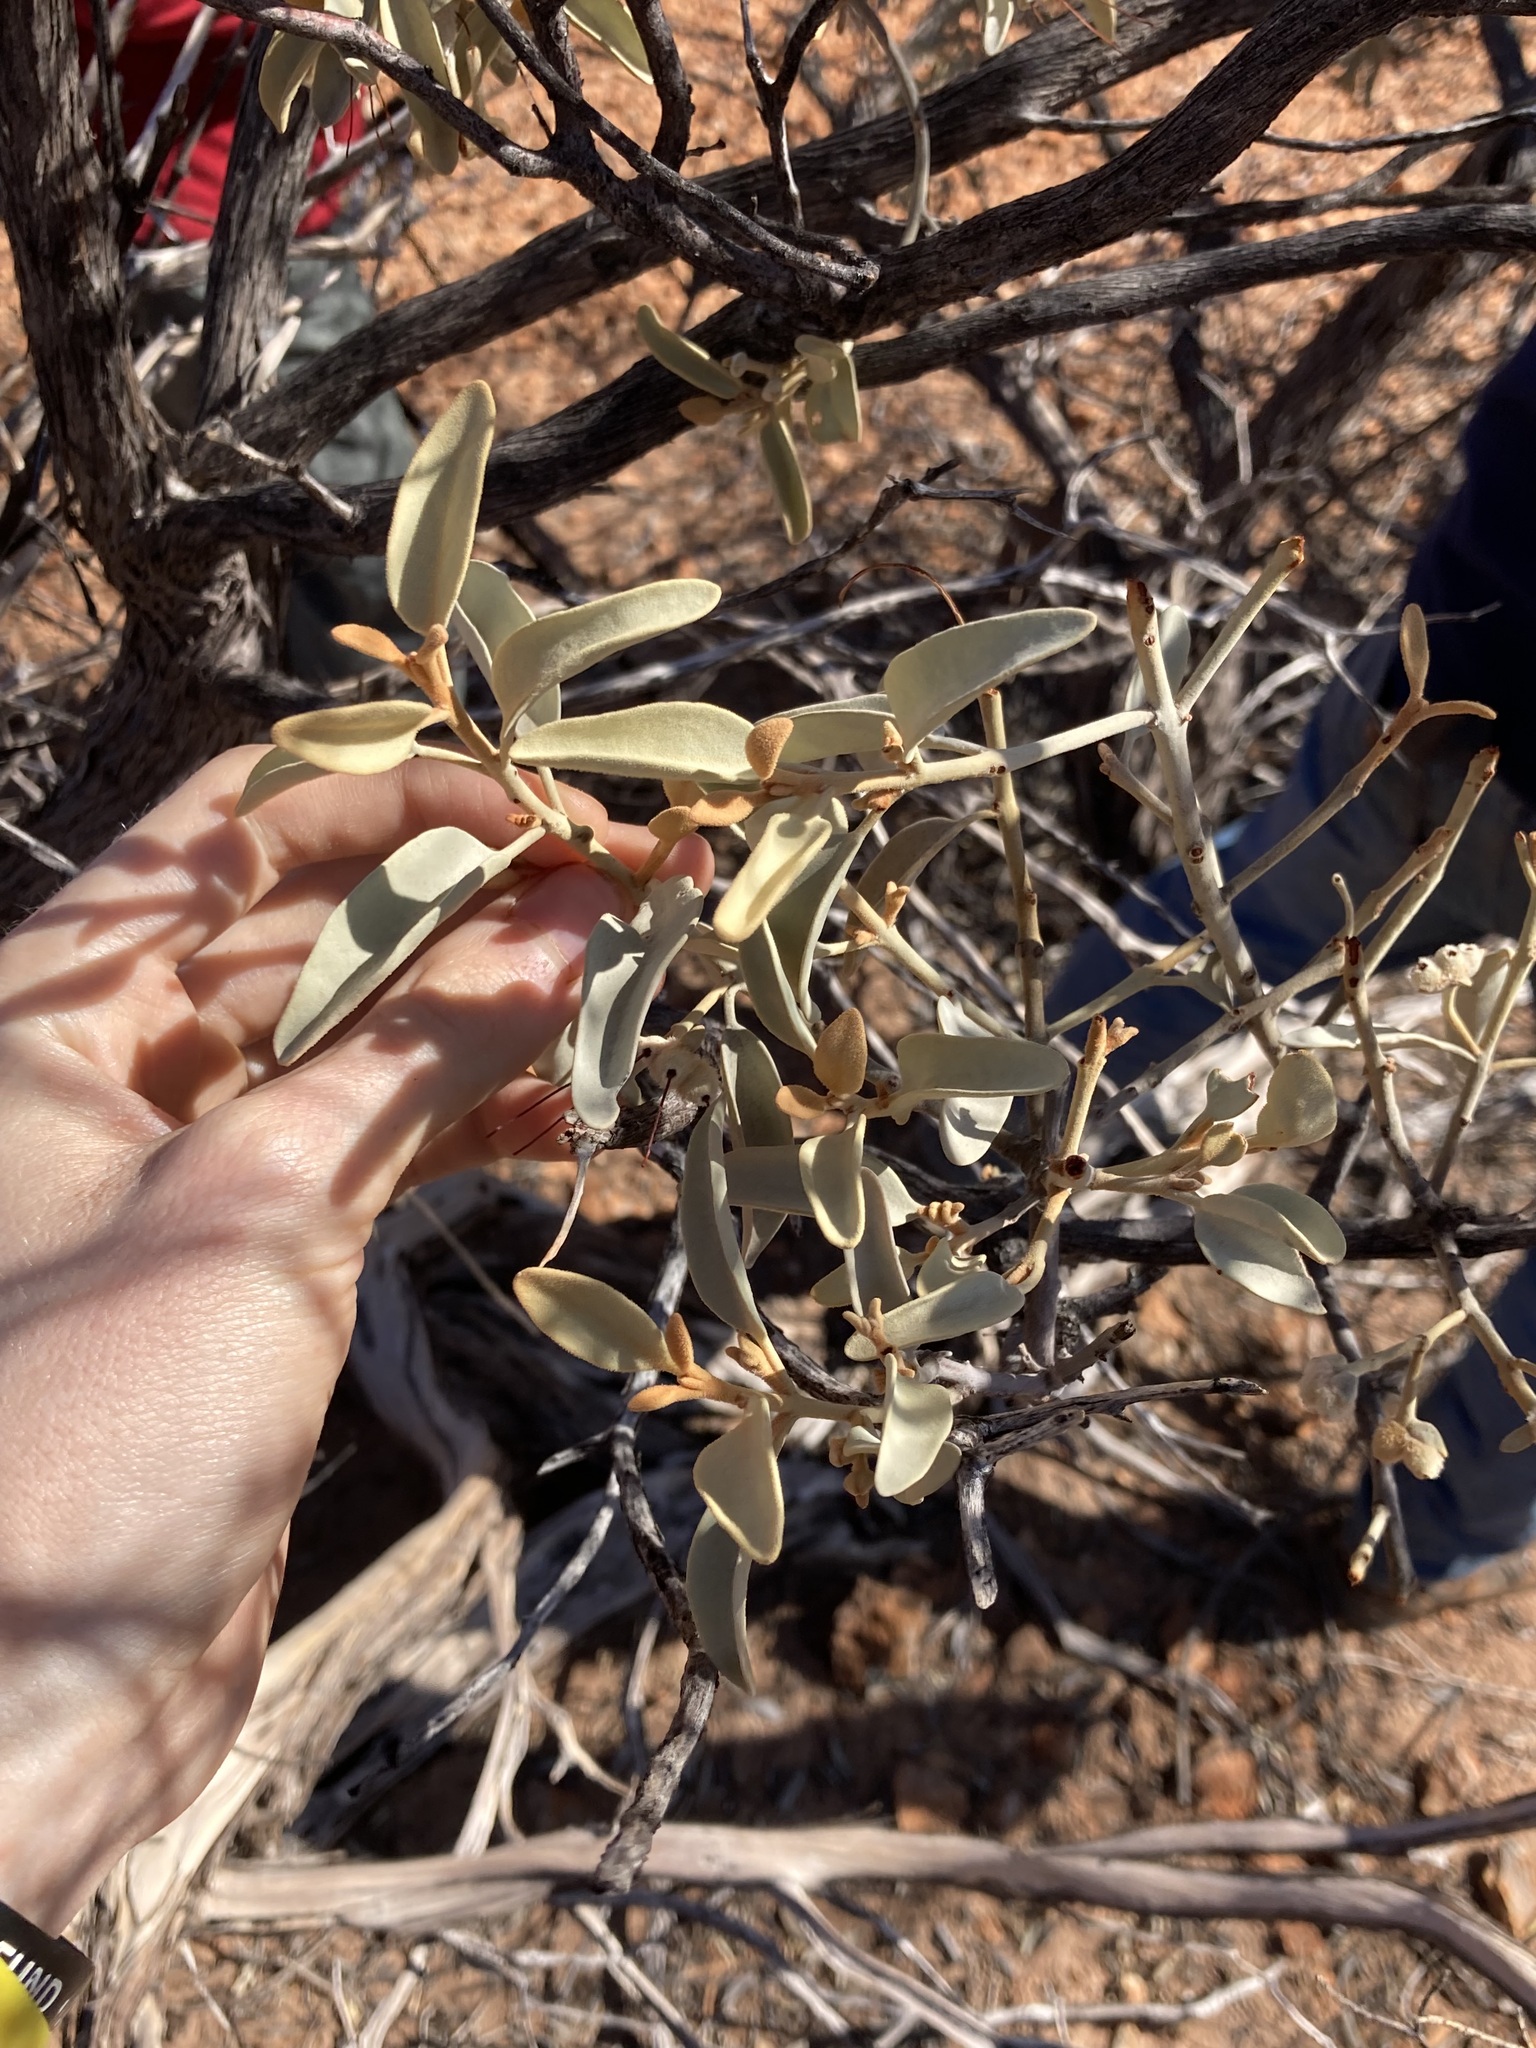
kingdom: Plantae
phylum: Tracheophyta
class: Magnoliopsida
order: Santalales
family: Loranthaceae
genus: Amyema
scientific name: Amyema nestor
